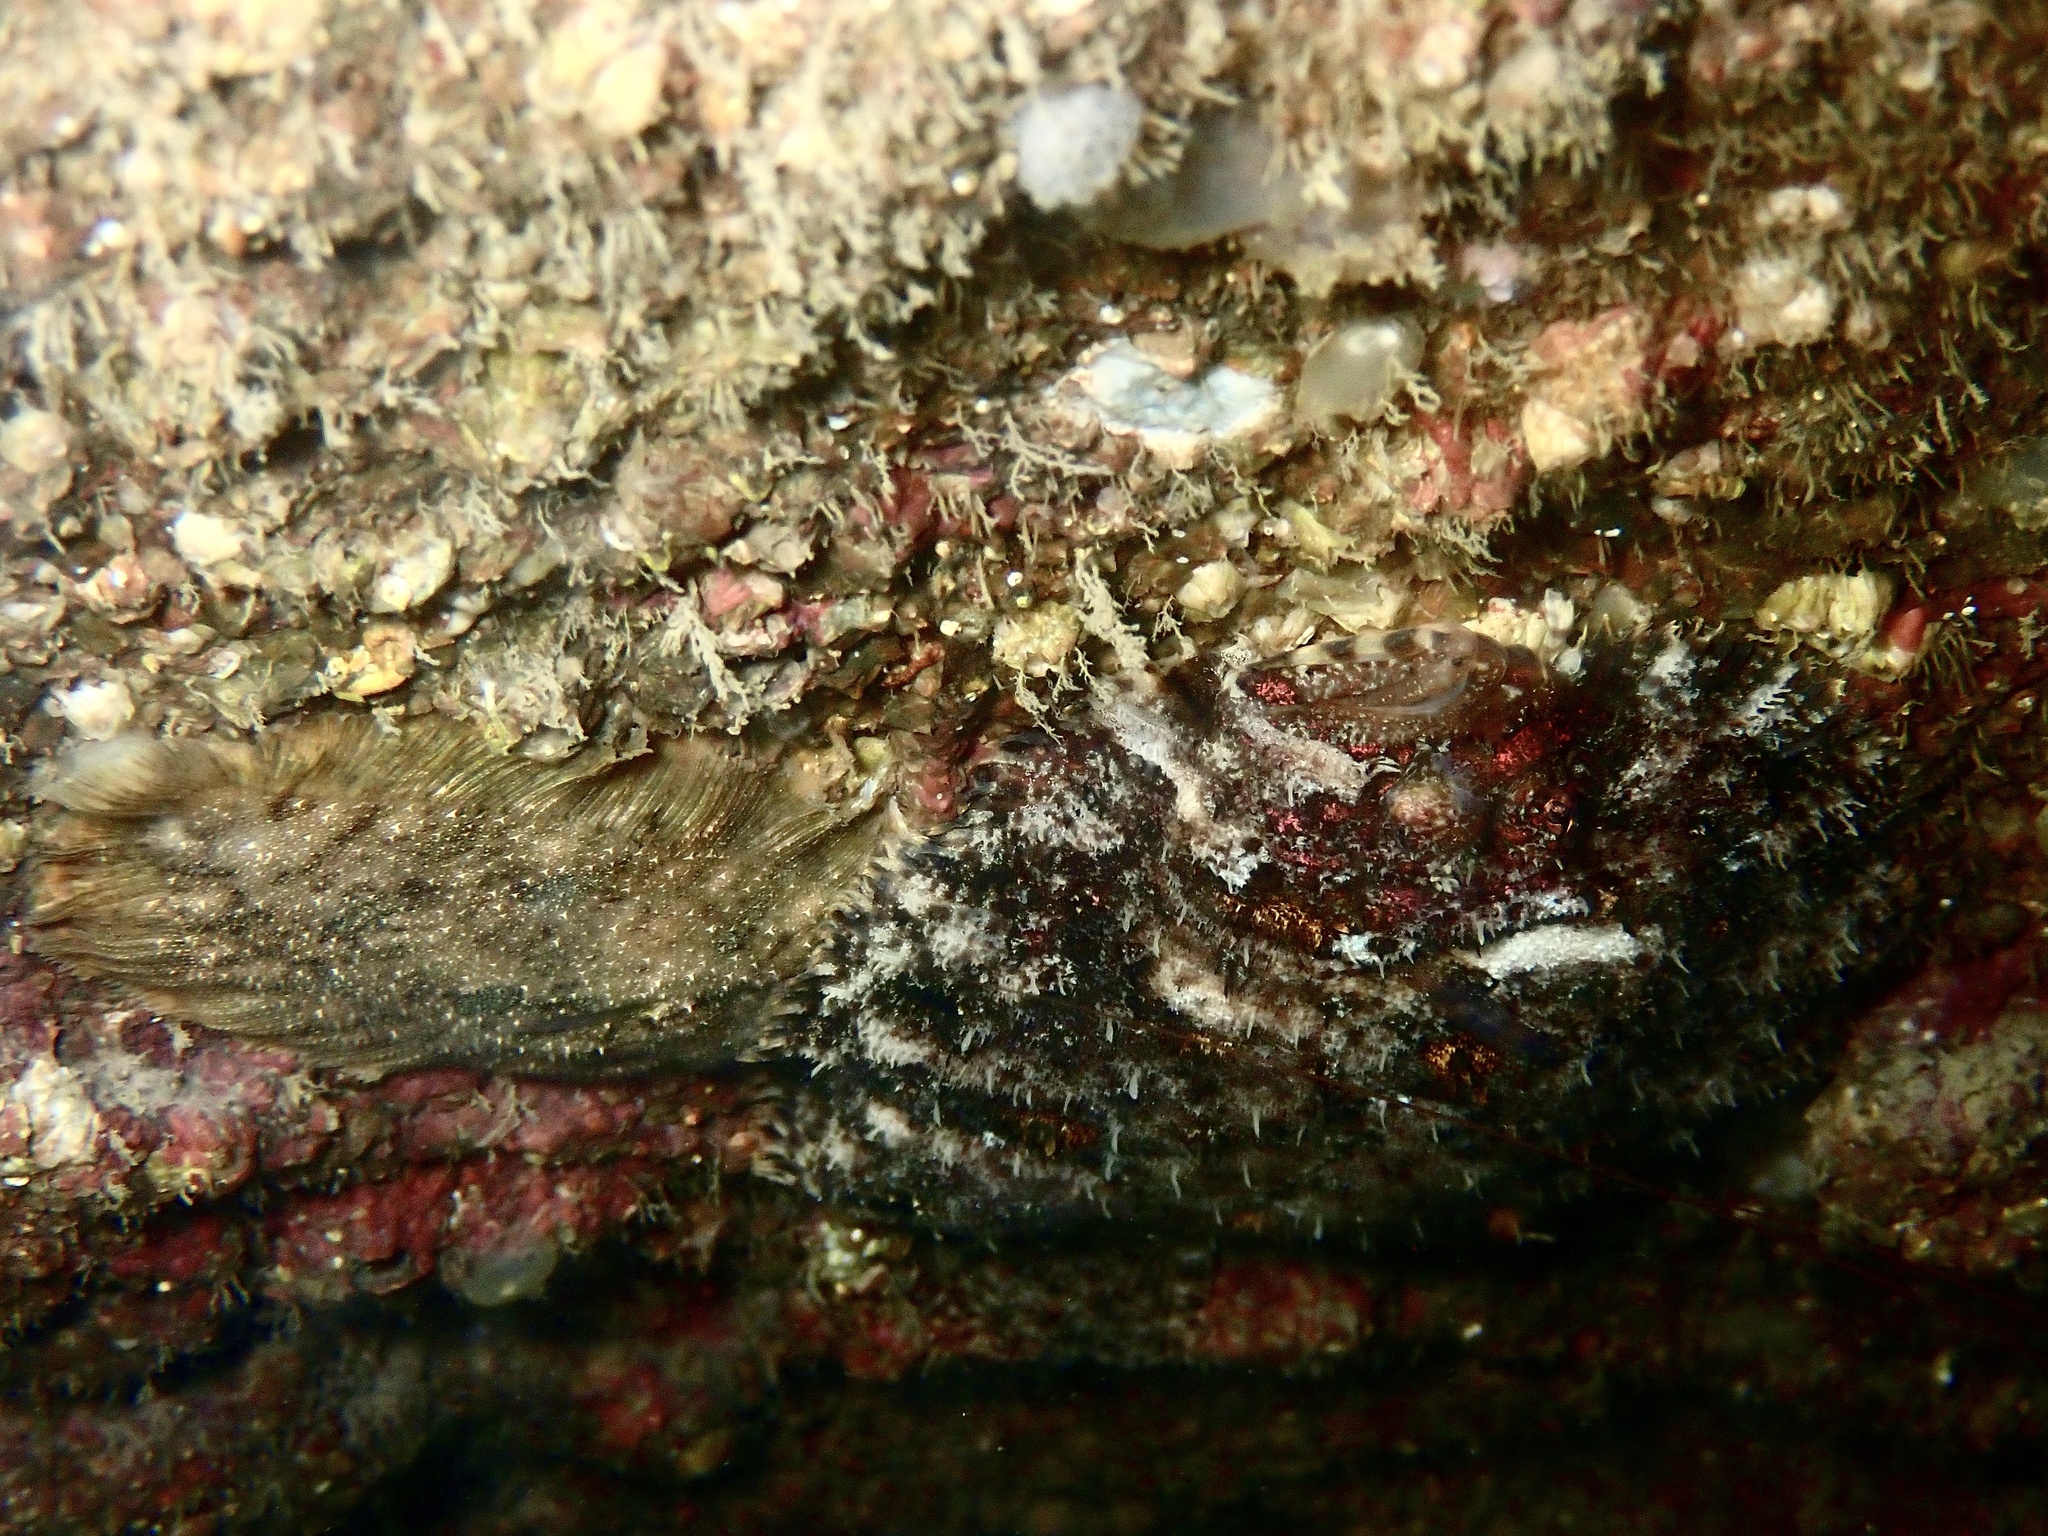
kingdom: Animalia
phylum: Chordata
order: Pleuronectiformes
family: Scophthalmidae
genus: Zeugopterus
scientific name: Zeugopterus punctatus
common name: Topknot
